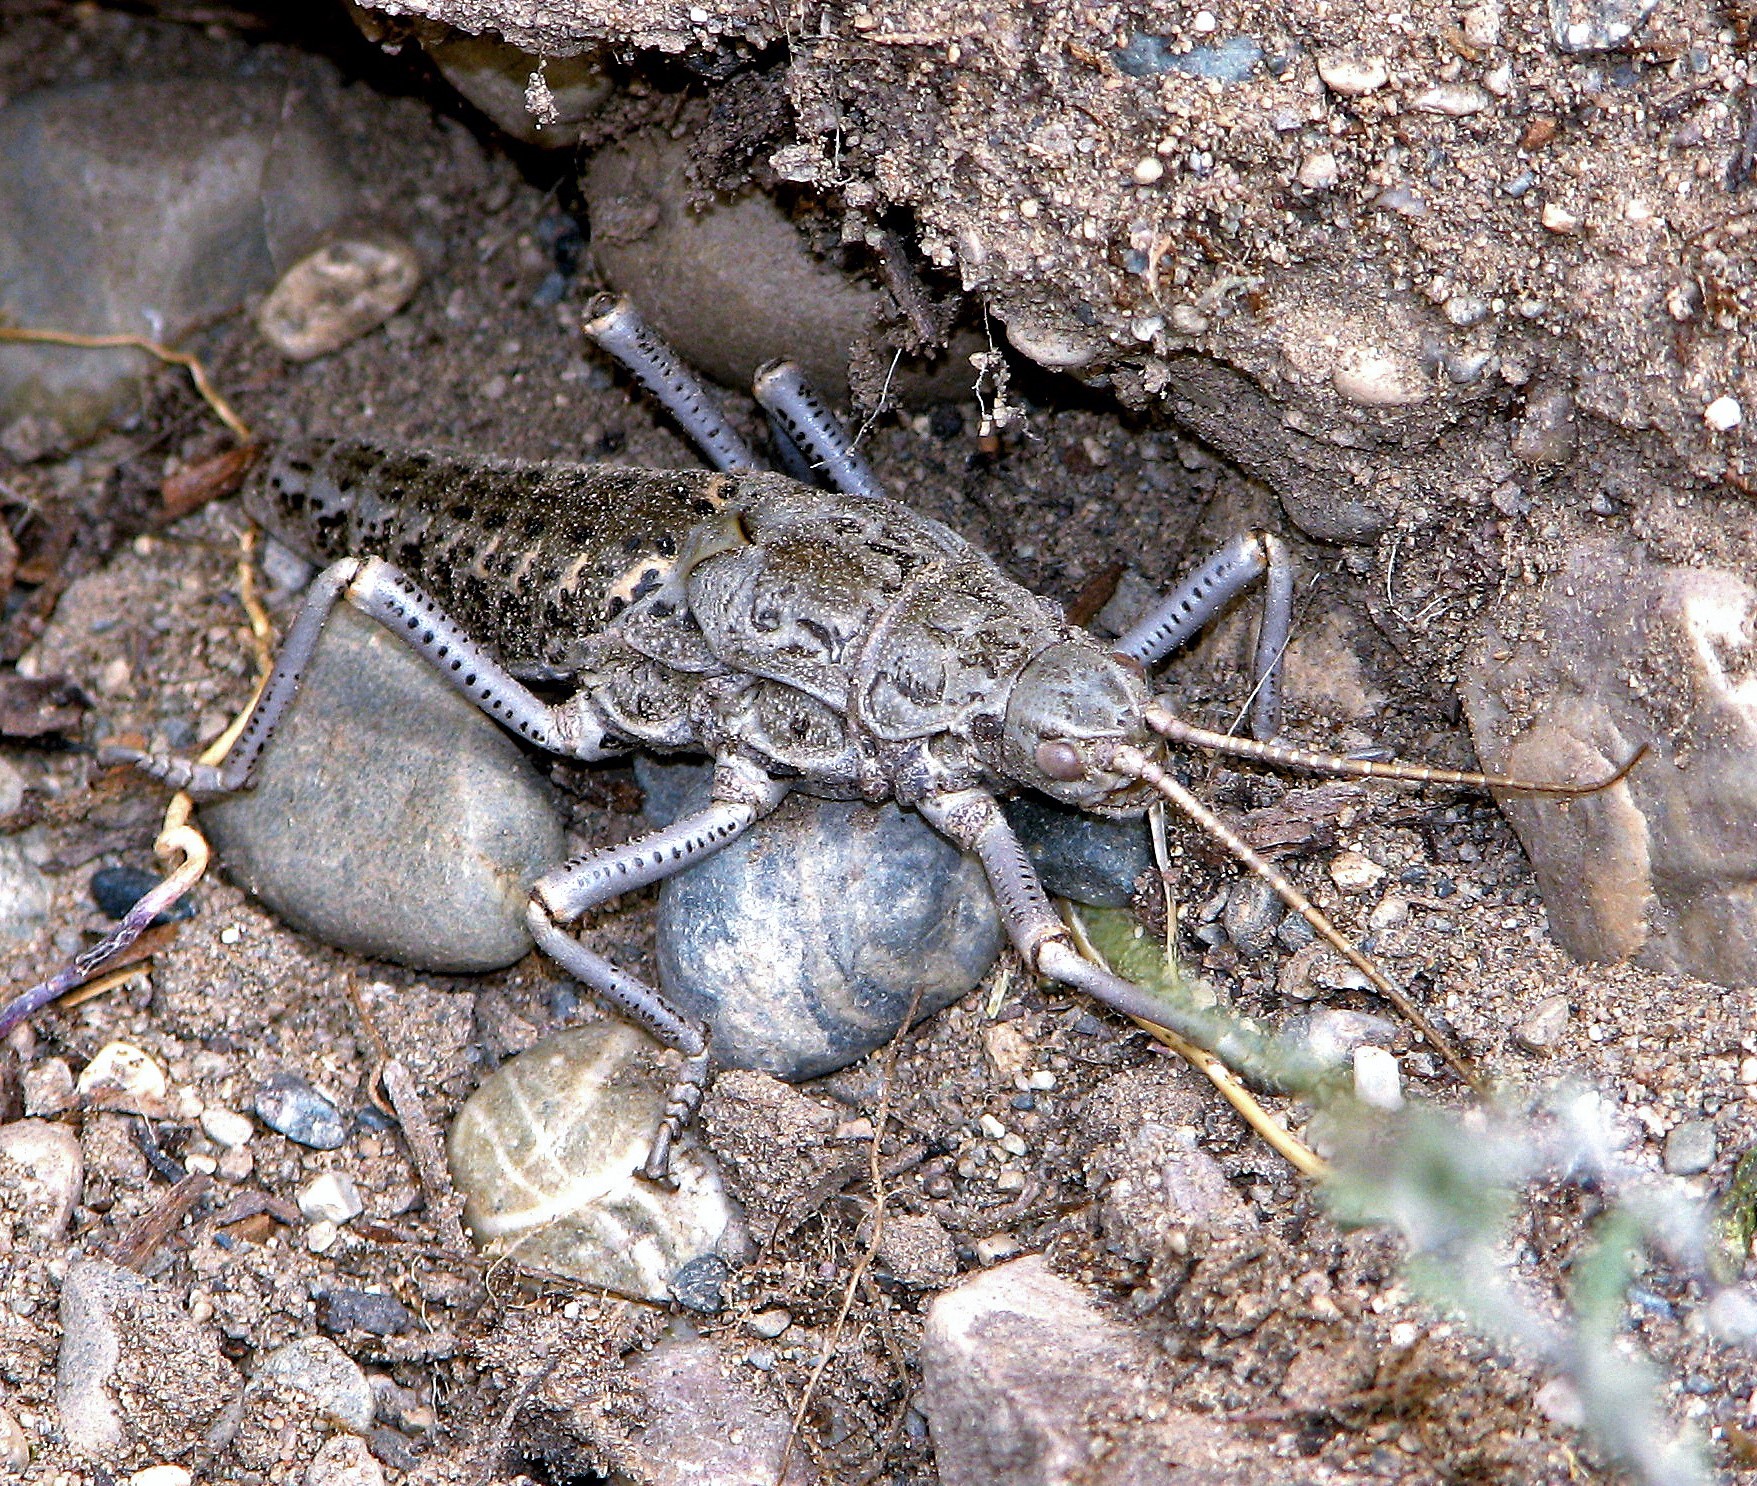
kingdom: Animalia
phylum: Arthropoda
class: Insecta
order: Phasmida
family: Agathemeridae
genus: Agathemera
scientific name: Agathemera claraziana
